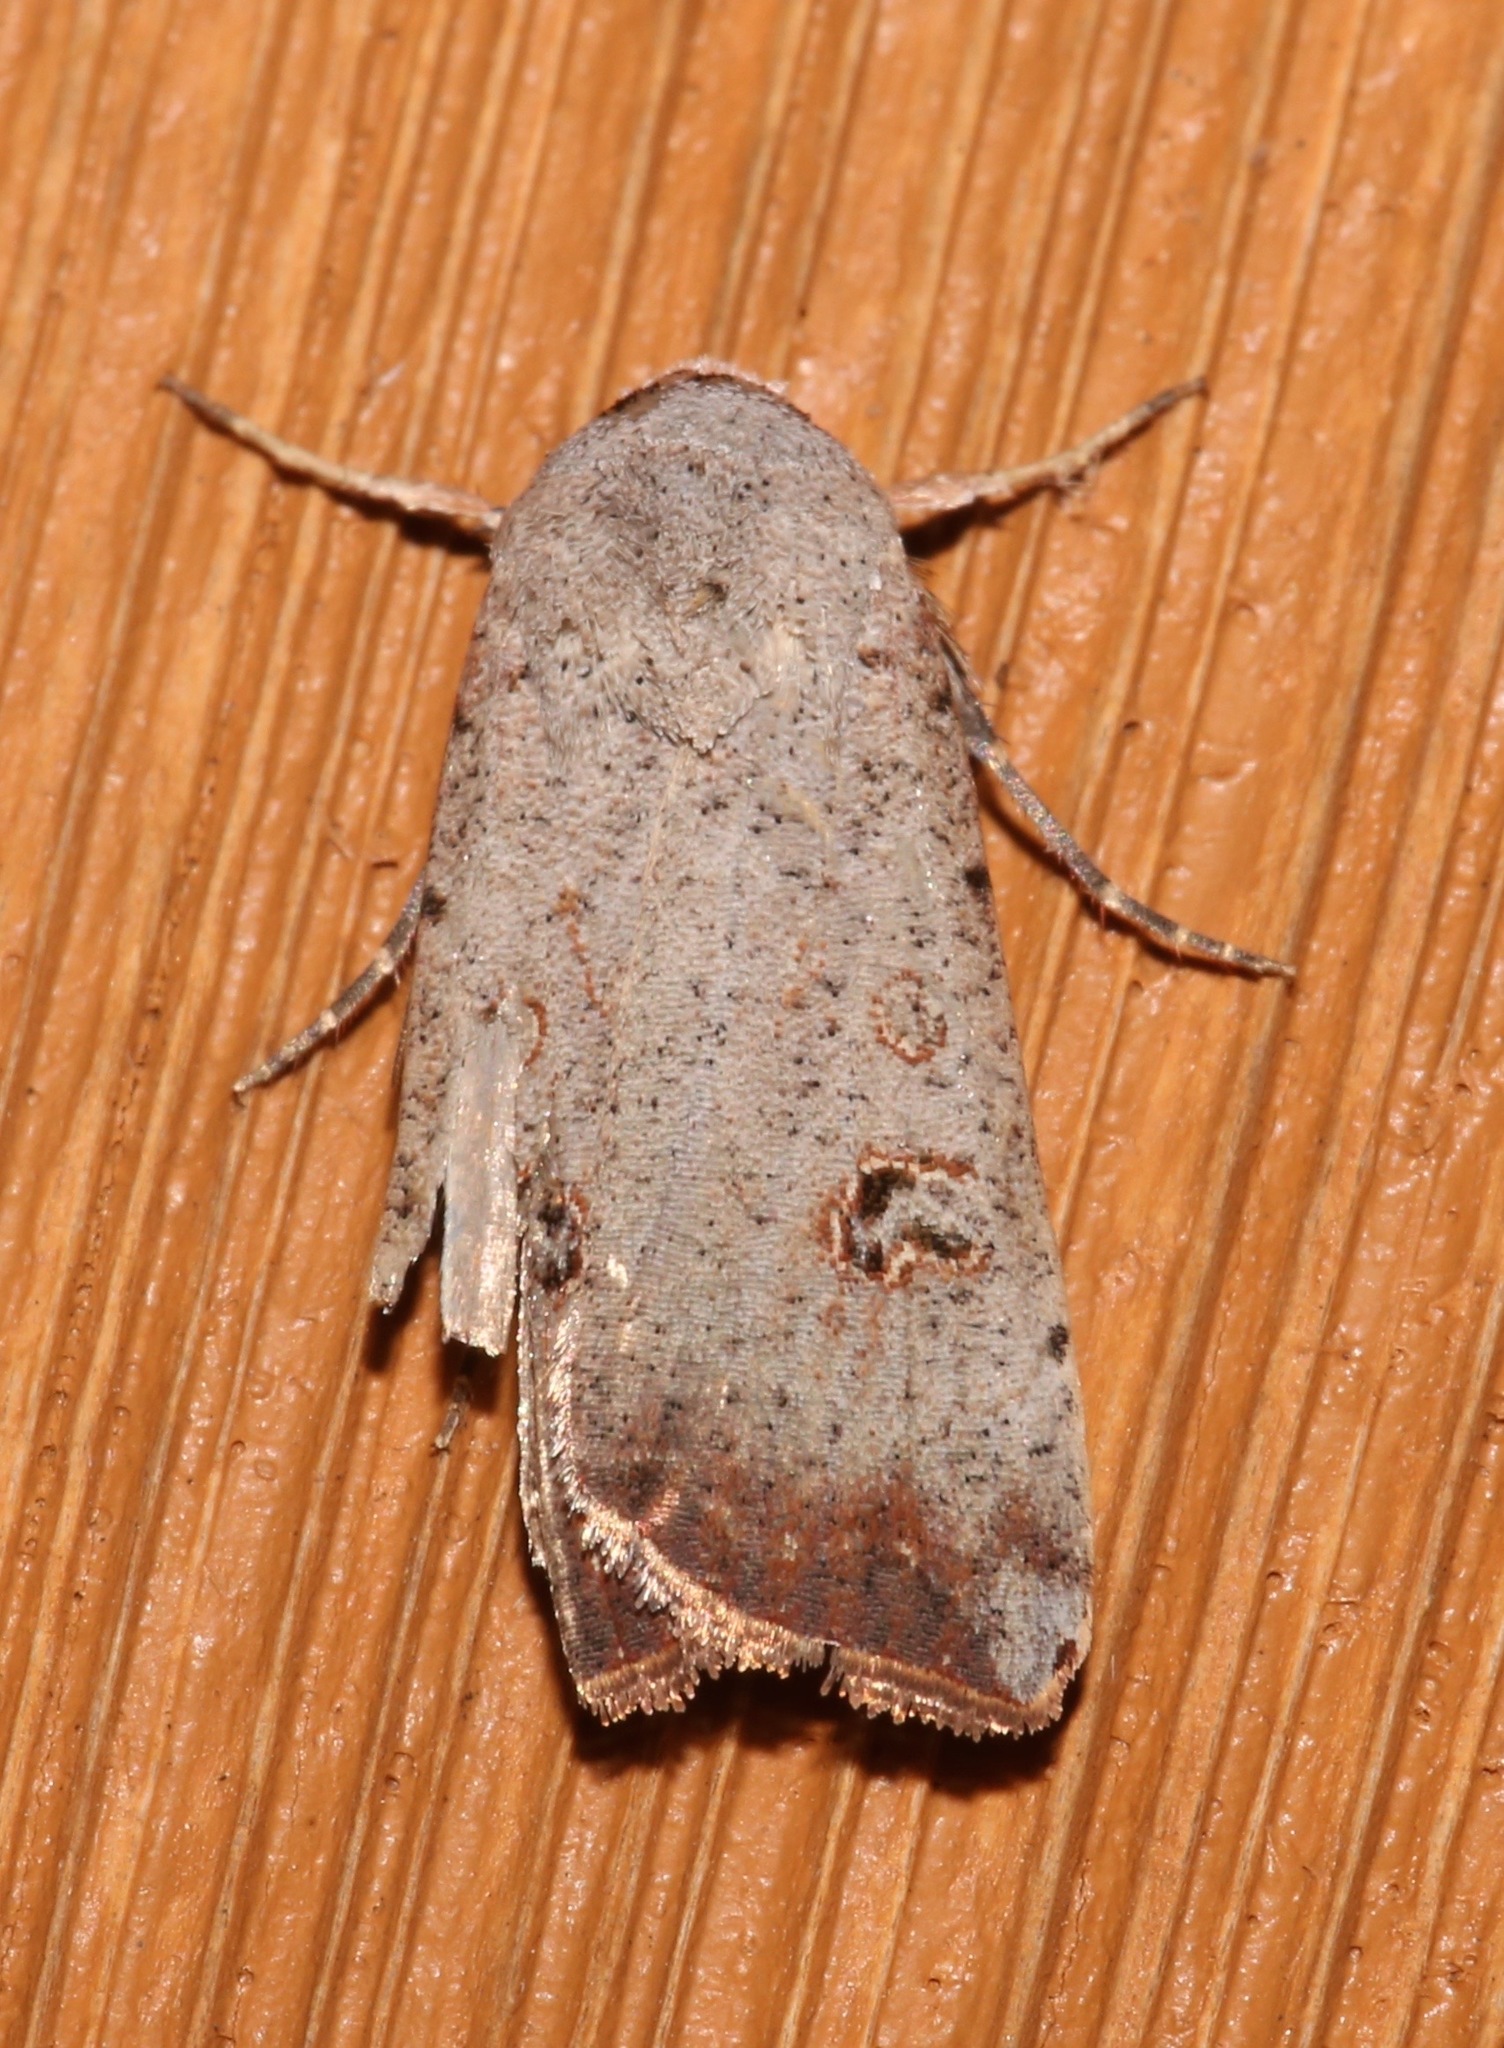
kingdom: Animalia
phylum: Arthropoda
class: Insecta
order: Lepidoptera
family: Noctuidae
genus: Anicla
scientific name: Anicla infecta
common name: Green cutworm
